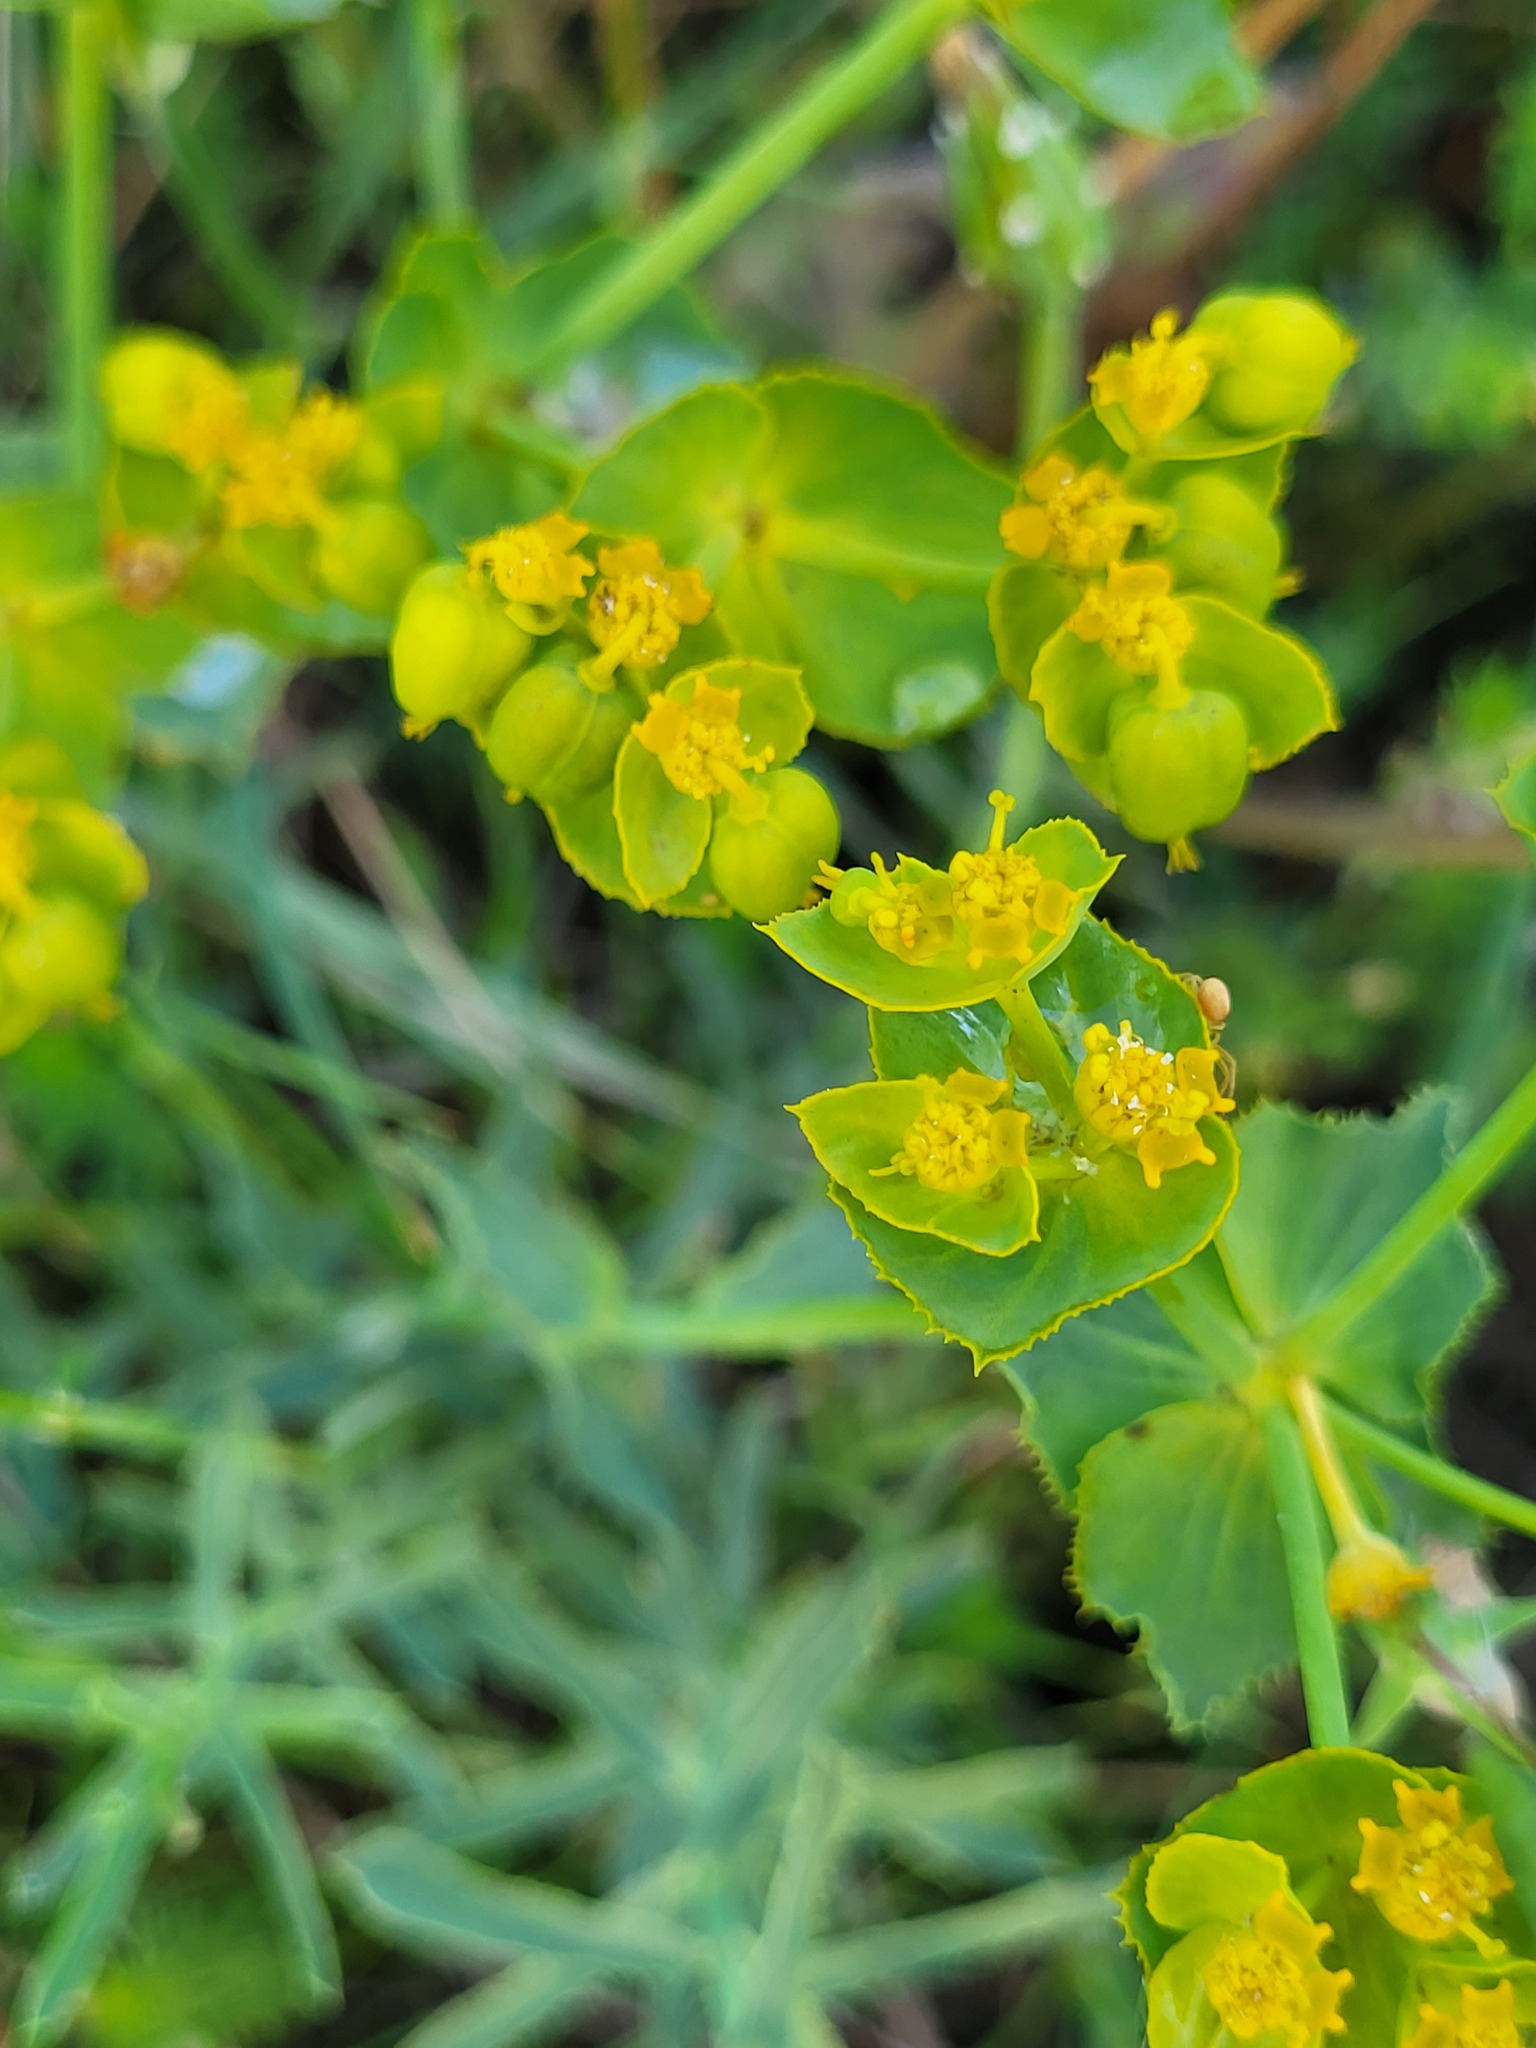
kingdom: Plantae
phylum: Tracheophyta
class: Magnoliopsida
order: Malpighiales
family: Euphorbiaceae
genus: Euphorbia
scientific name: Euphorbia serrata
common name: Serrate spurge
